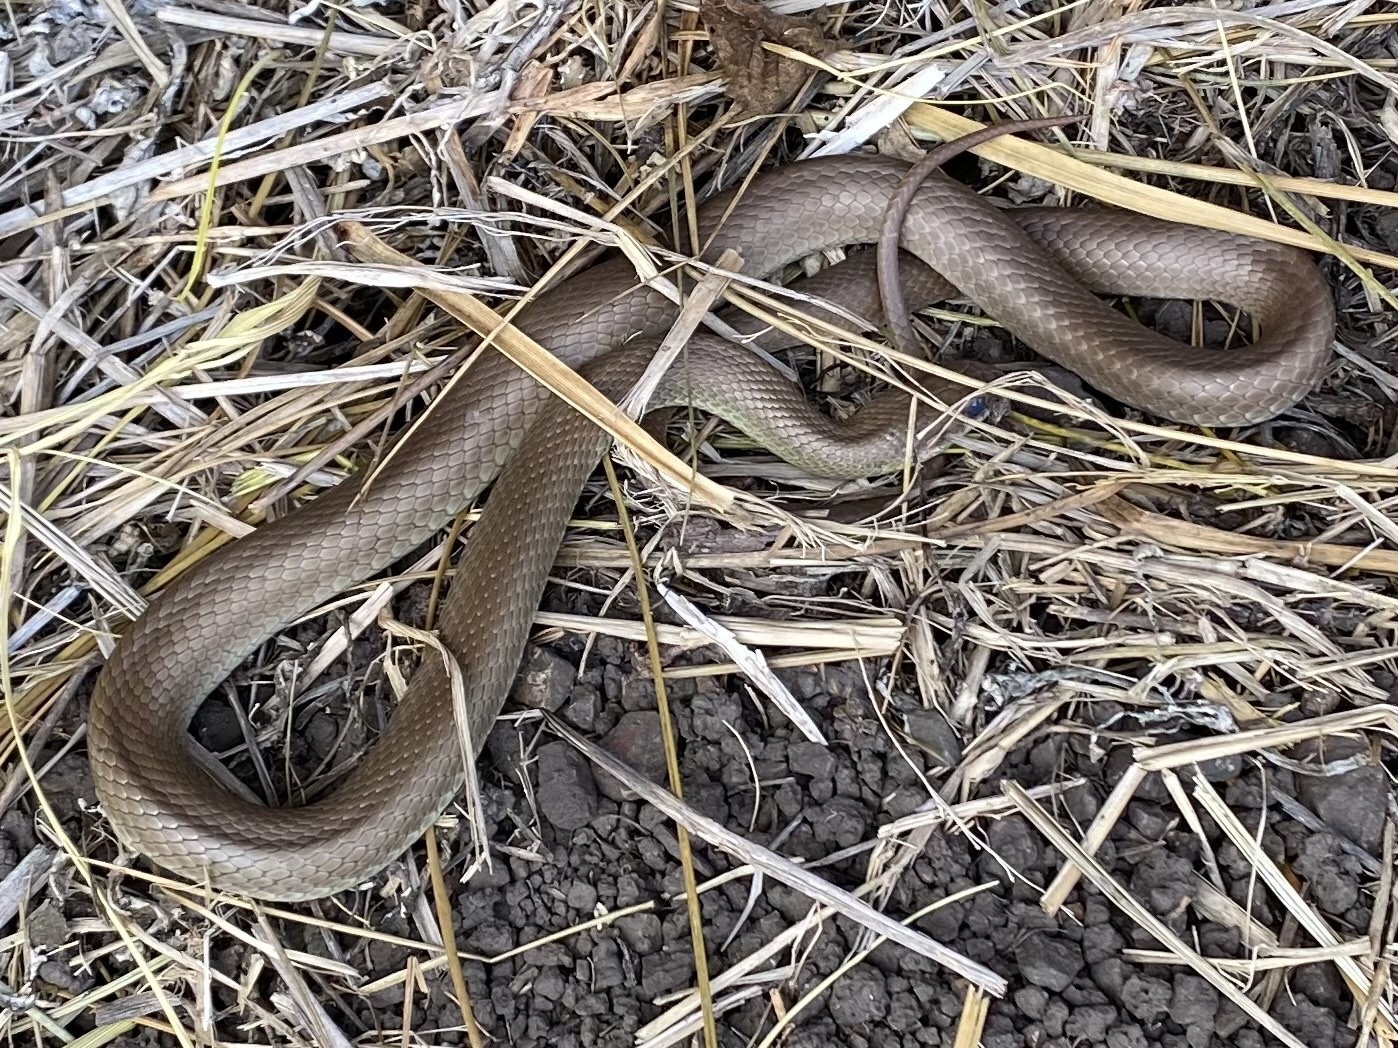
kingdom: Animalia
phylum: Chordata
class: Squamata
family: Colubridae
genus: Coluber
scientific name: Coluber constrictor
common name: Eastern racer
